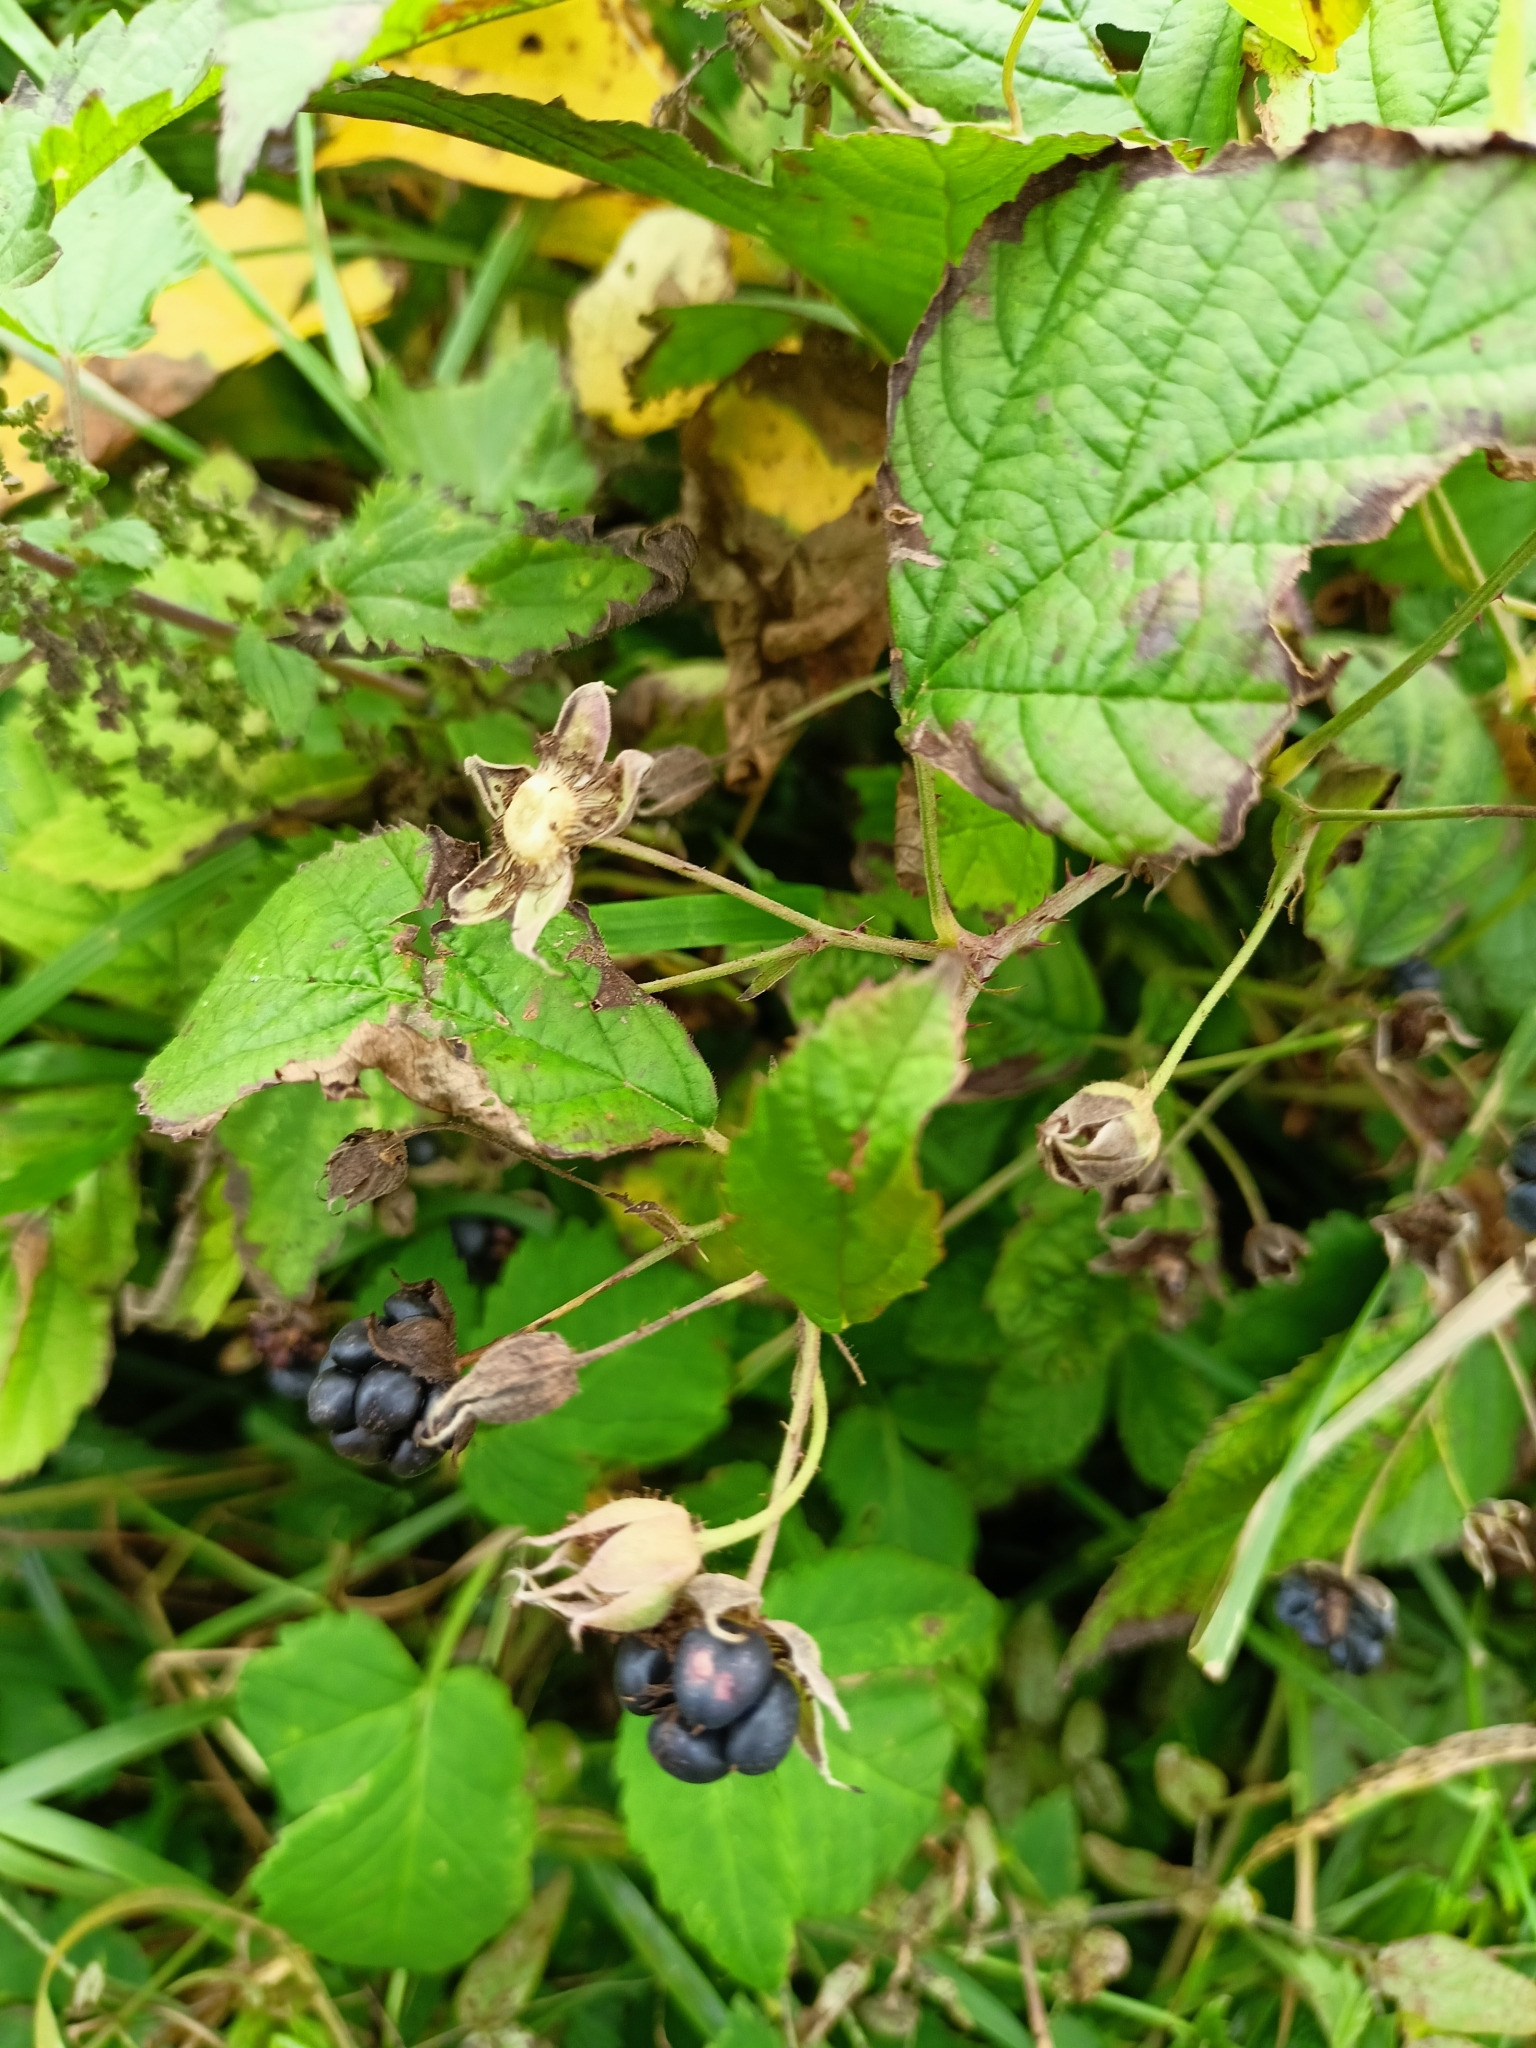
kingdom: Plantae
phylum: Tracheophyta
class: Magnoliopsida
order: Rosales
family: Rosaceae
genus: Rubus
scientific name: Rubus caesius
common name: Dewberry
